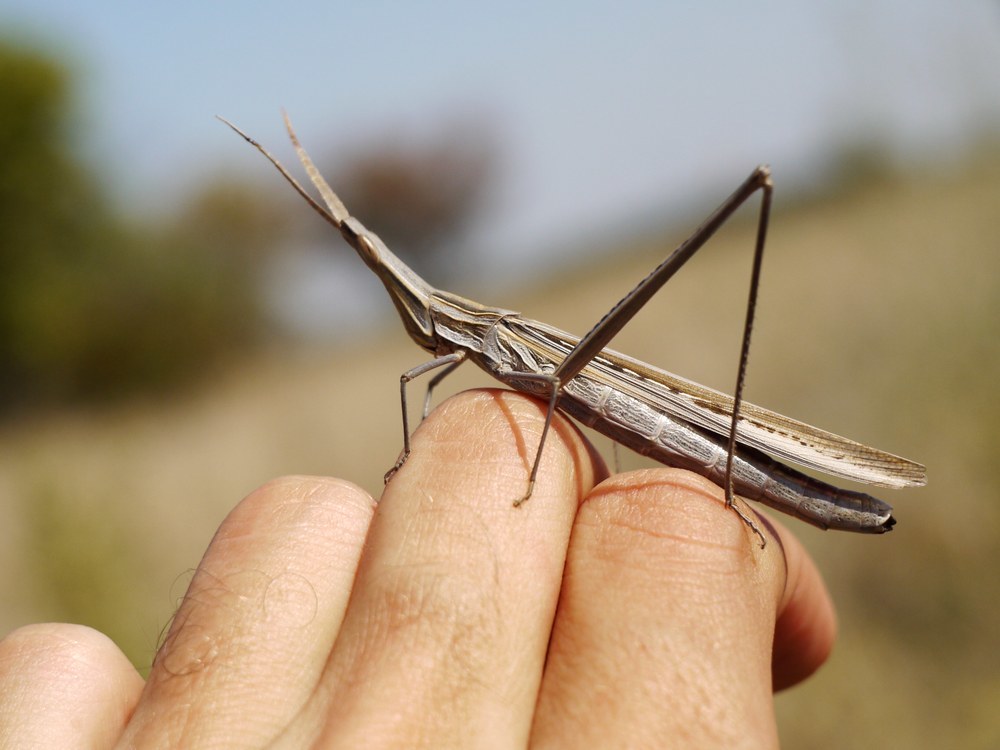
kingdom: Animalia
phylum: Arthropoda
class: Insecta
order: Orthoptera
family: Acrididae
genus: Acrida
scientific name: Acrida ungarica
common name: Common cone-headed grasshopper
